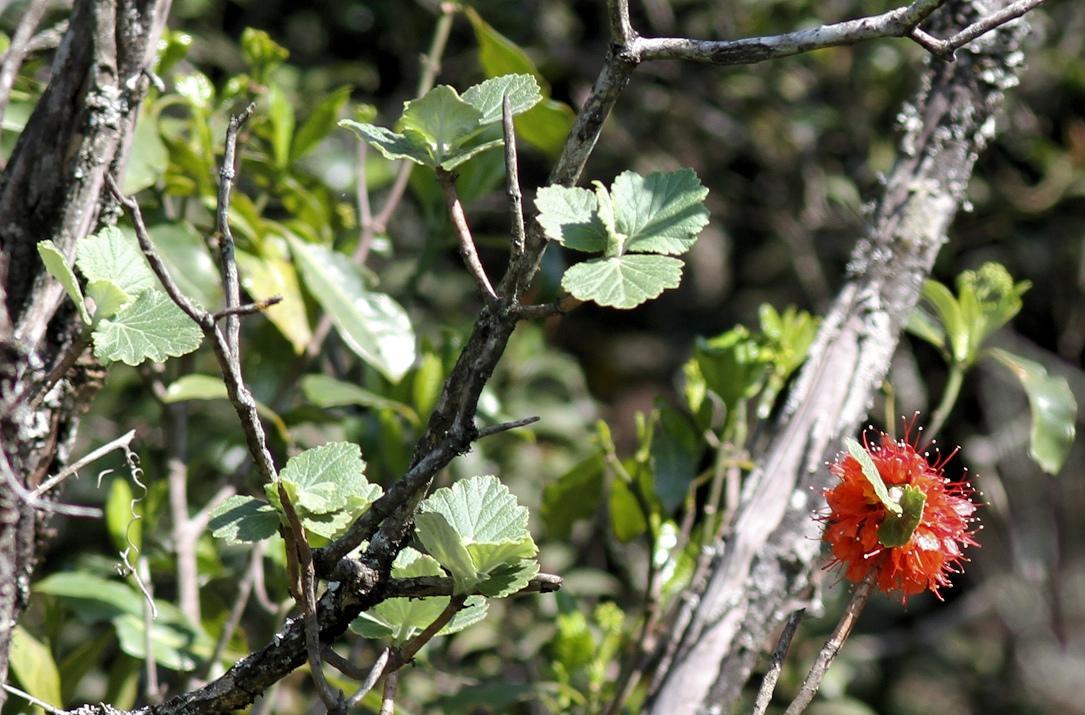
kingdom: Plantae
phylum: Tracheophyta
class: Magnoliopsida
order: Geraniales
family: Francoaceae
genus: Greyia
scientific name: Greyia radlkoferi
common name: Natal bottlebrush
